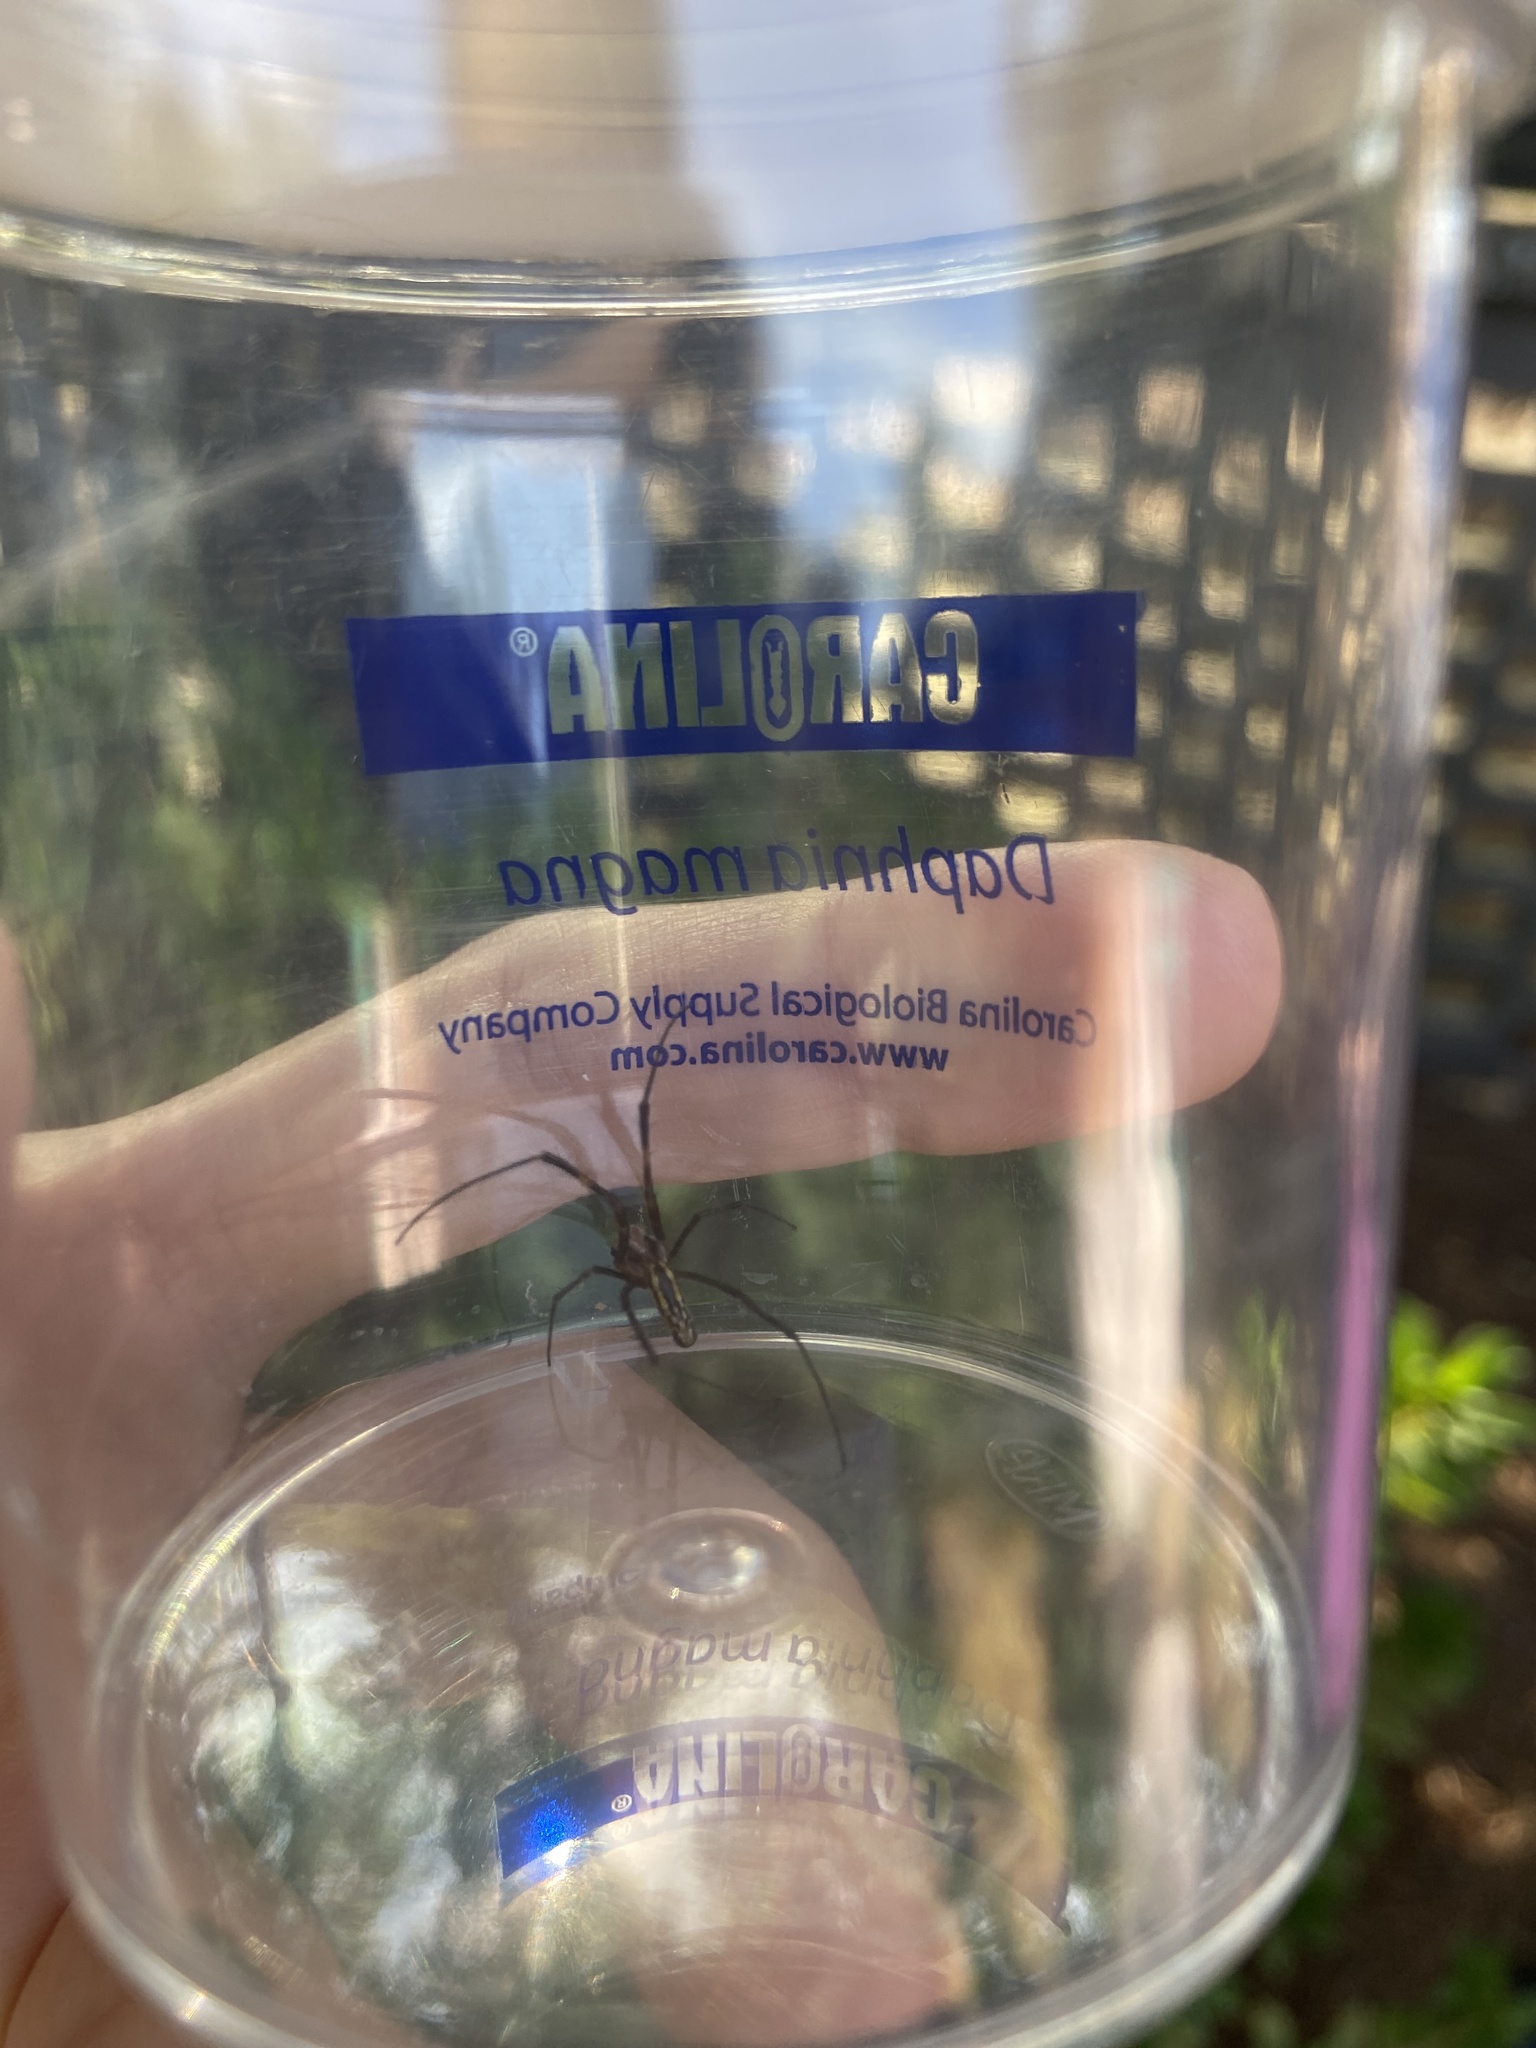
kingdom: Animalia
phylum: Arthropoda
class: Arachnida
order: Araneae
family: Araneidae
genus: Trichonephila
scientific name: Trichonephila clavata
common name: Jorō spider
